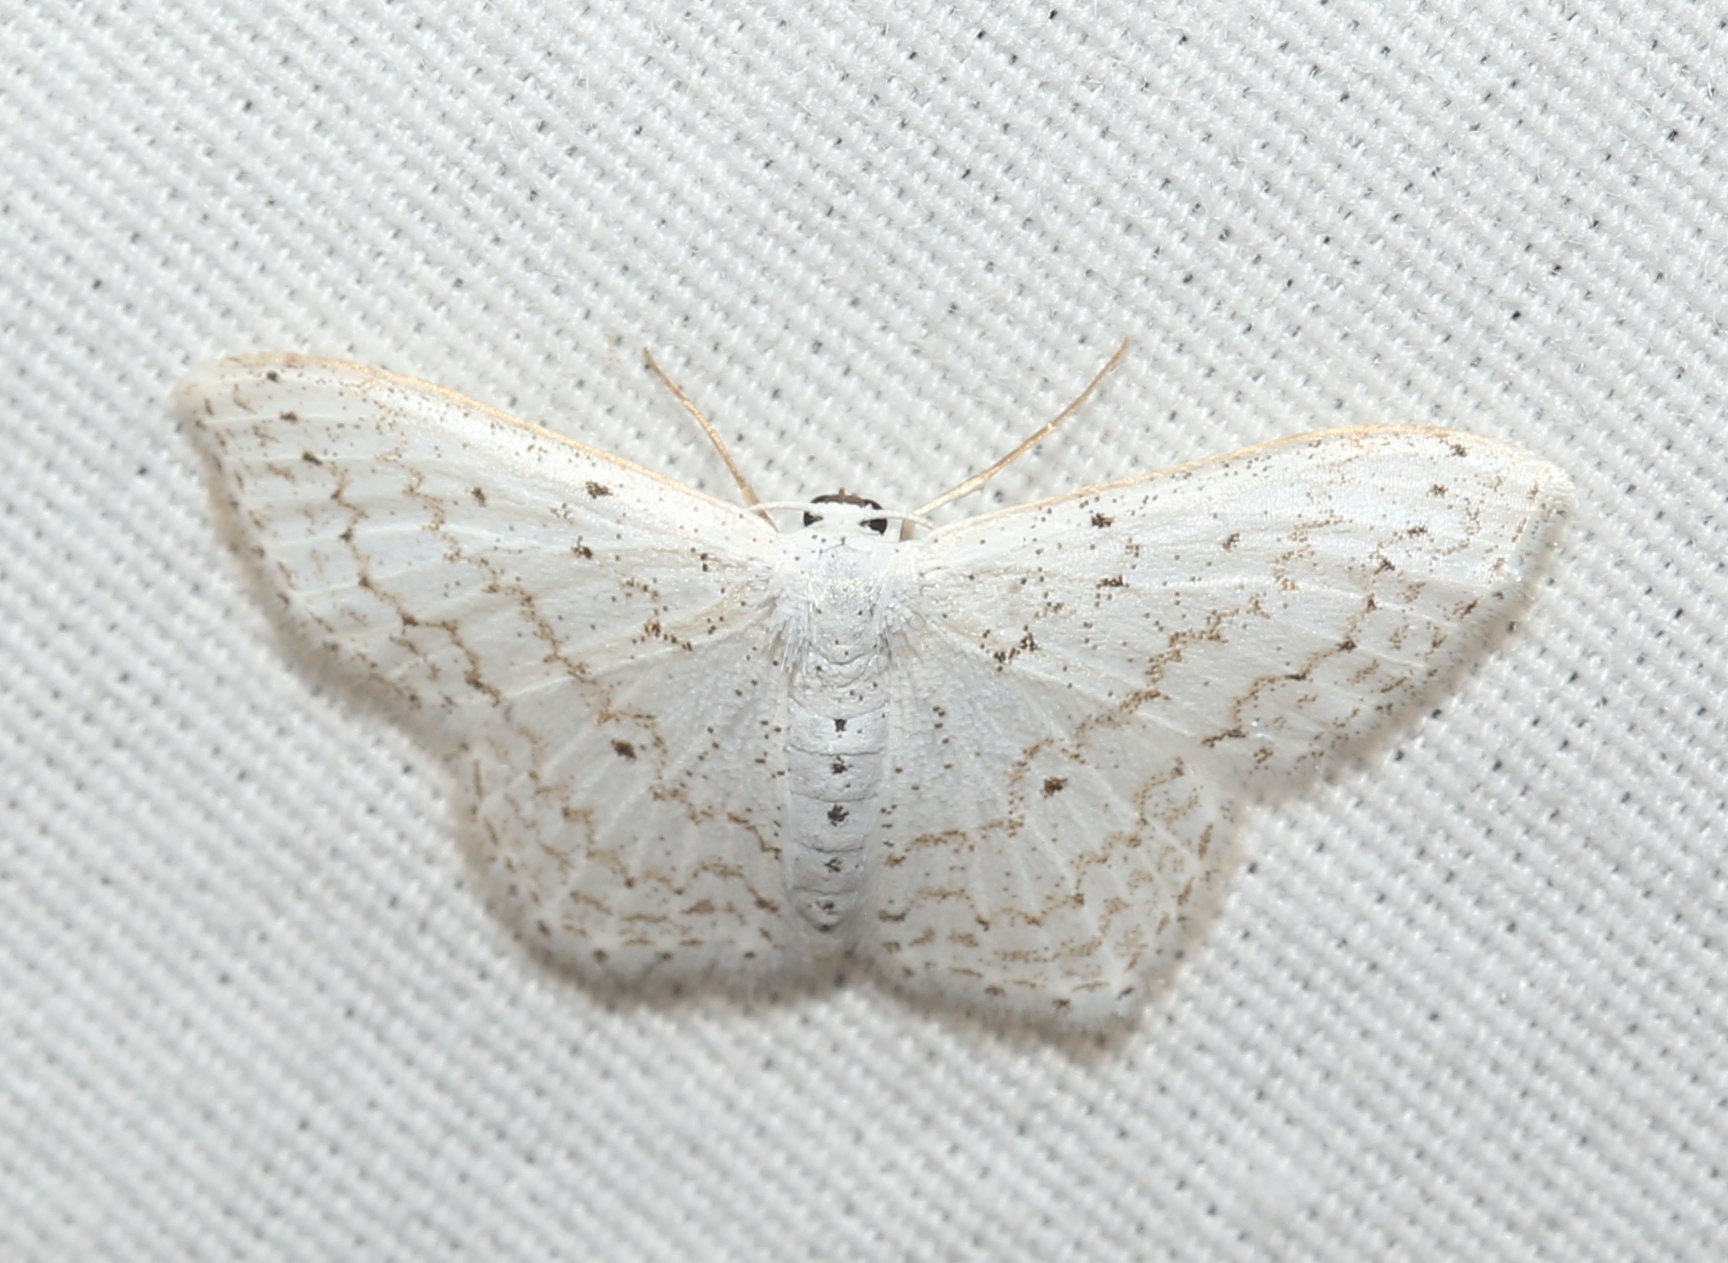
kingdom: Animalia
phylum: Arthropoda
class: Insecta
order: Lepidoptera
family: Geometridae
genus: Idaea
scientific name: Idaea tacturata
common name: Dot-lined wave
